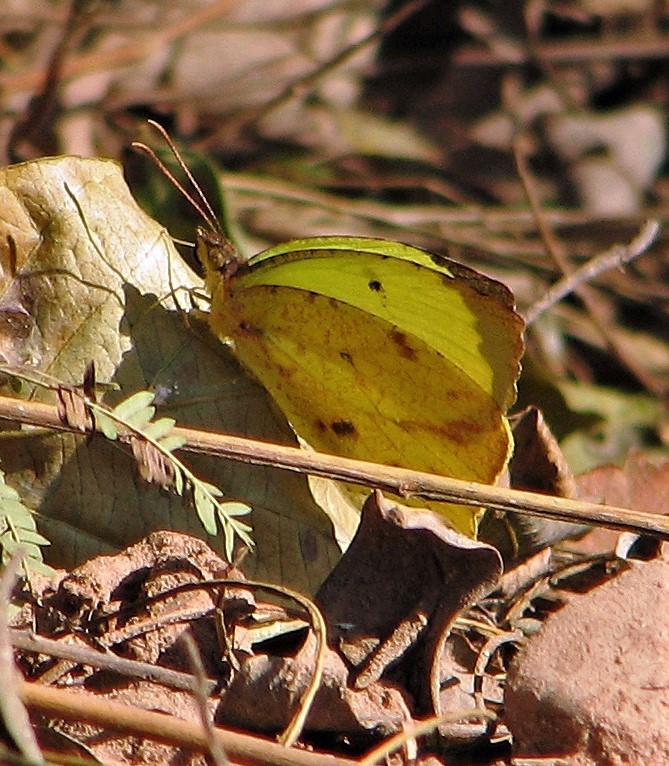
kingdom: Animalia
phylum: Arthropoda
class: Insecta
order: Lepidoptera
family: Pieridae
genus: Abaeis
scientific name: Abaeis salome
